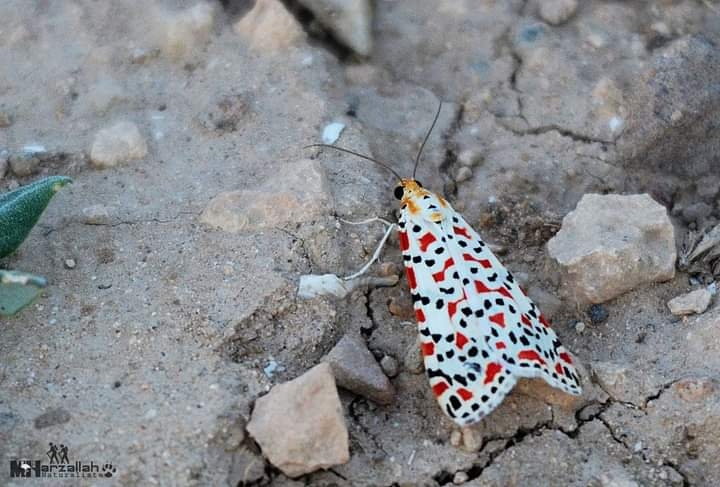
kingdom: Animalia
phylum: Arthropoda
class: Insecta
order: Lepidoptera
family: Erebidae
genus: Utetheisa
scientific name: Utetheisa pulchella
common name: Crimson speckled
